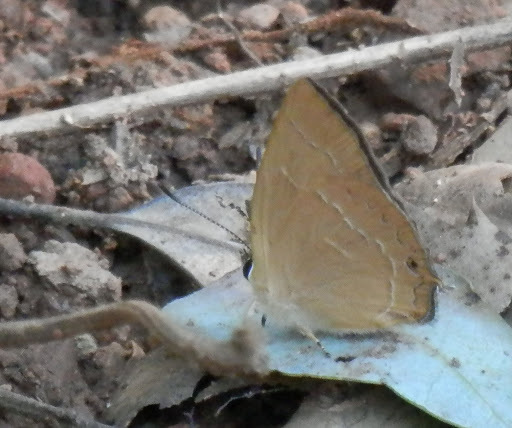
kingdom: Animalia
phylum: Arthropoda
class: Insecta
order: Lepidoptera
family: Lycaenidae
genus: Habrodais
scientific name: Habrodais grunus
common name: Golden hairstreak
